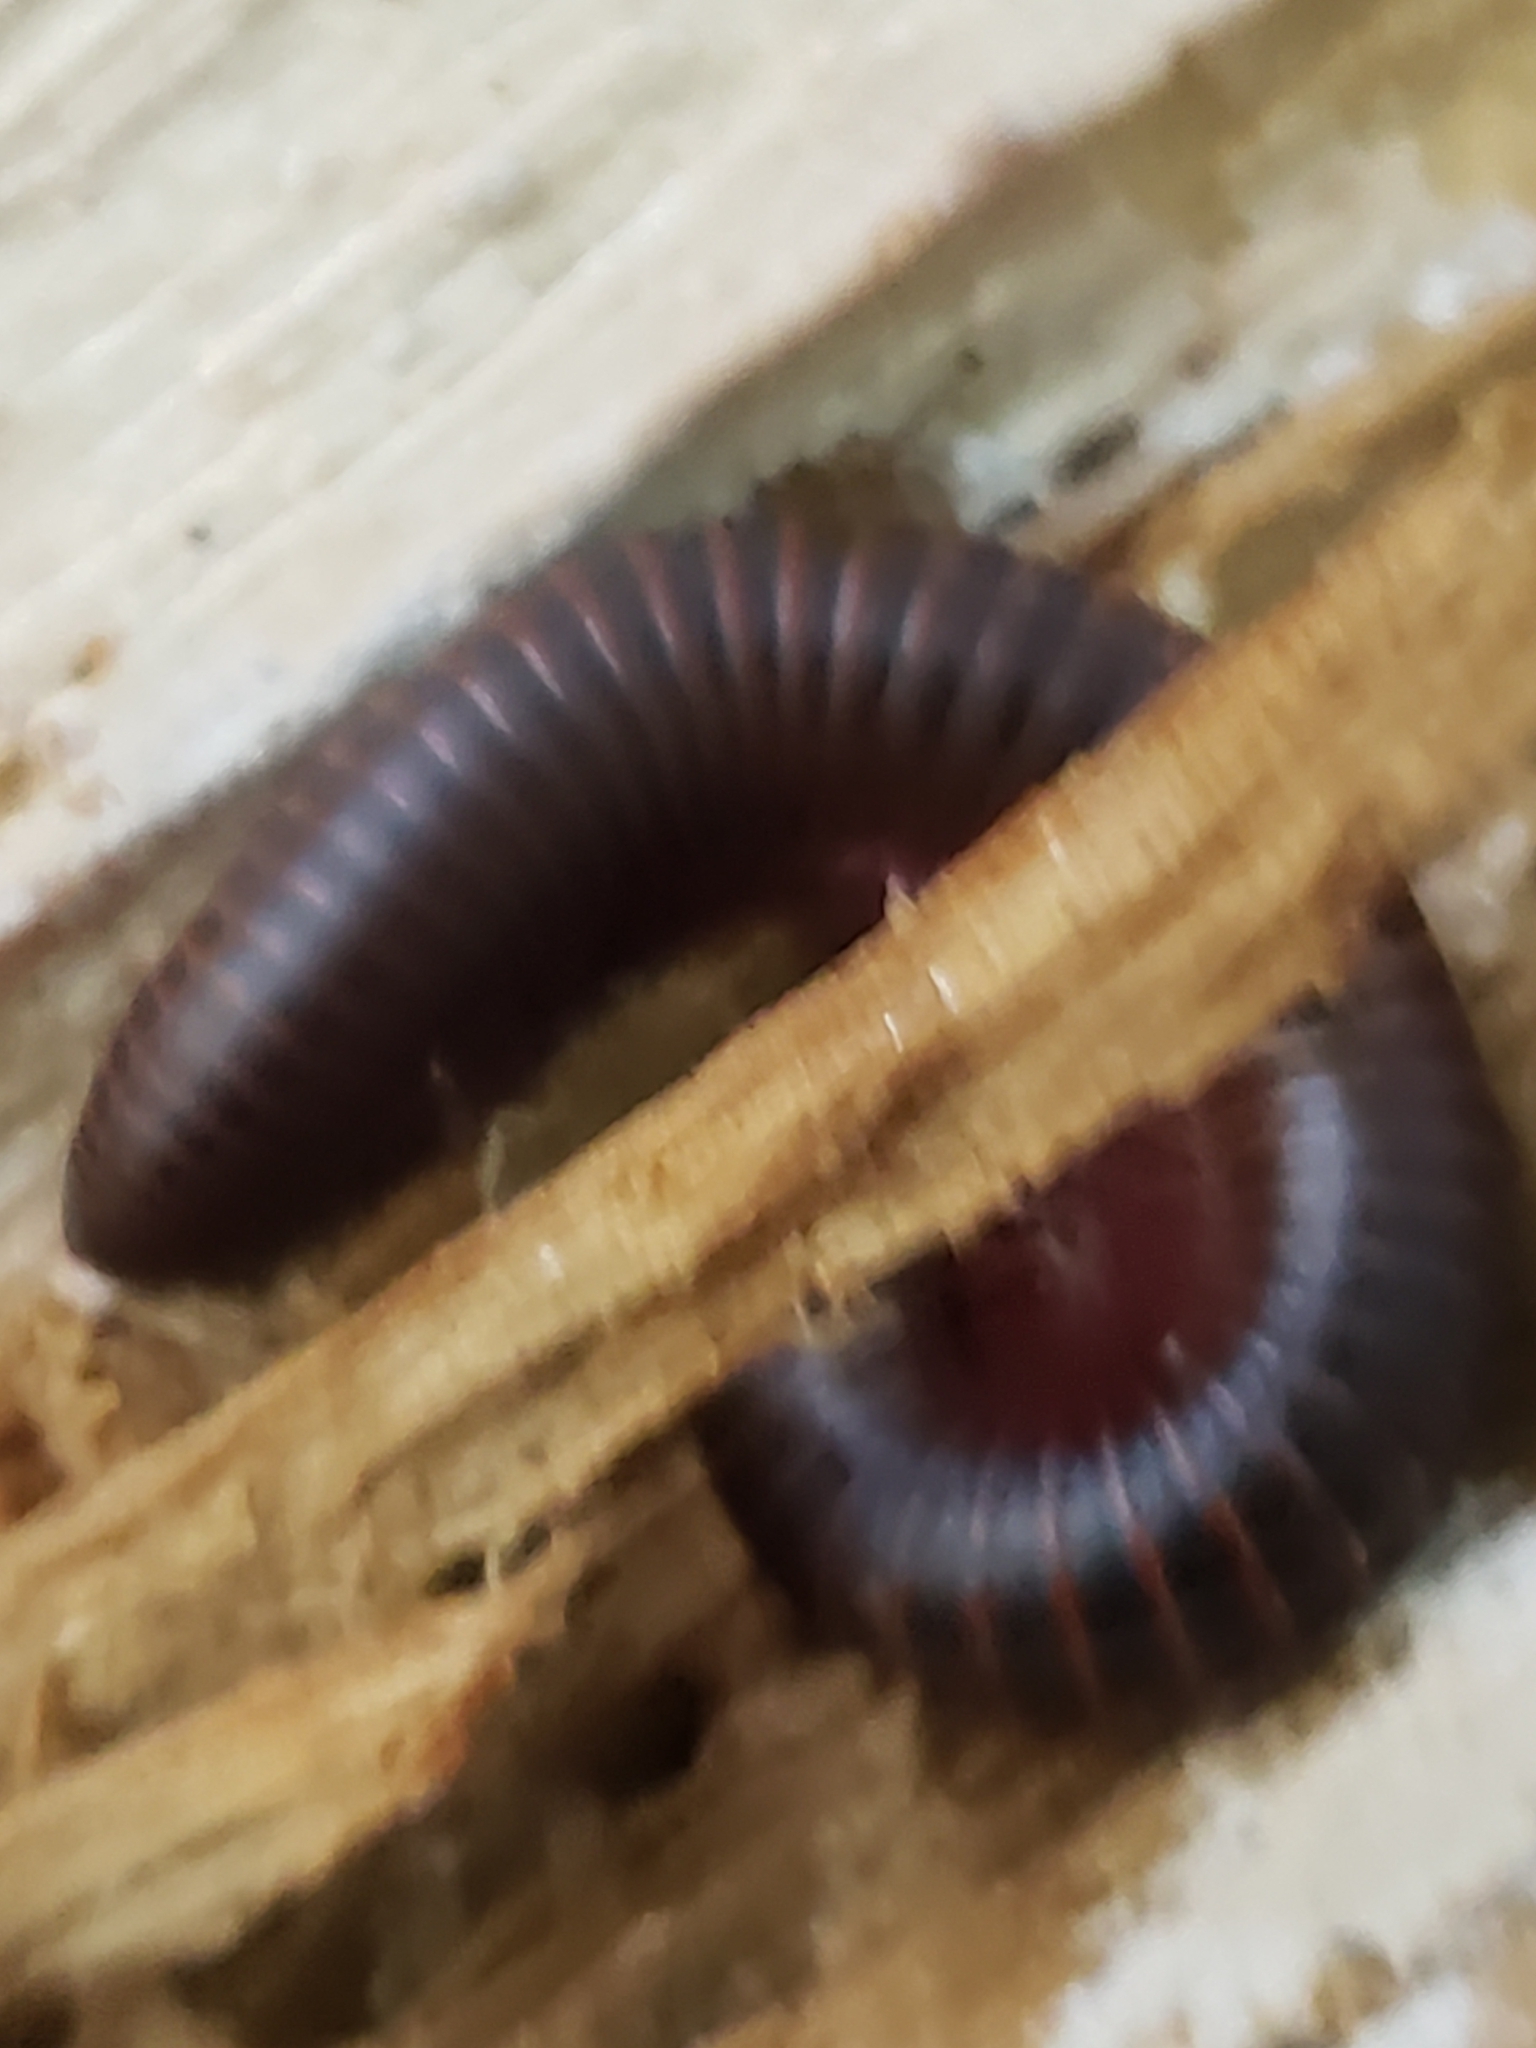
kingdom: Animalia
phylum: Arthropoda
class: Diplopoda
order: Spirobolida
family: Spirobolidae
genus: Narceus
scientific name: Narceus
